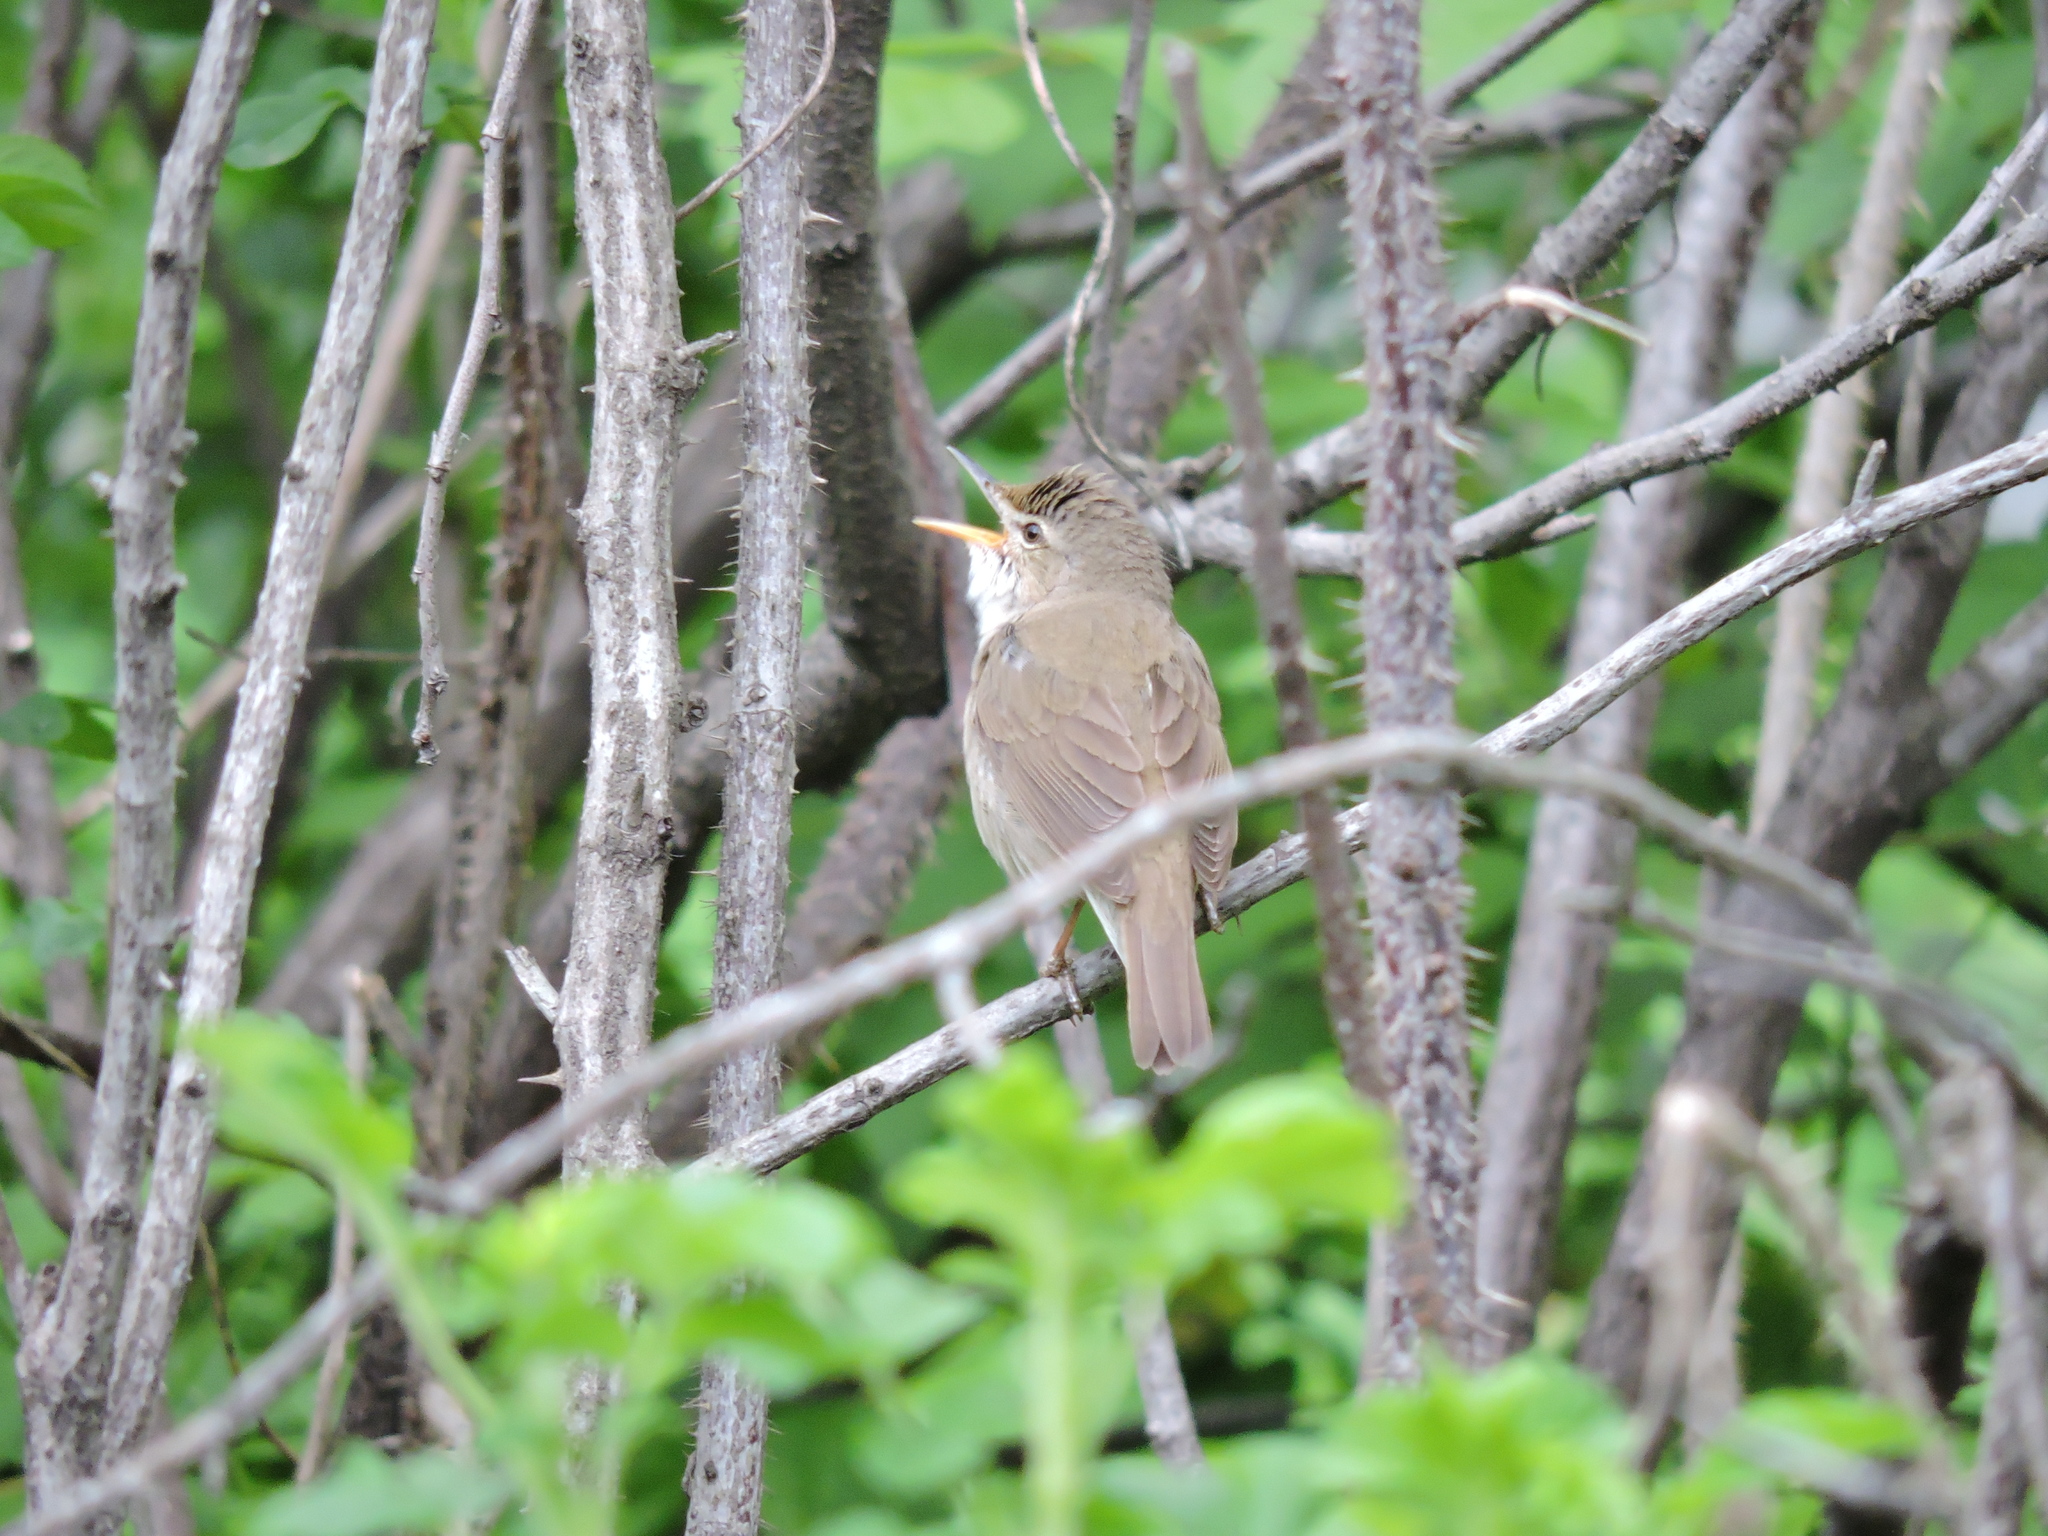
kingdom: Animalia
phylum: Chordata
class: Aves
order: Passeriformes
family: Acrocephalidae
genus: Acrocephalus
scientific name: Acrocephalus dumetorum
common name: Blyth's reed warbler
